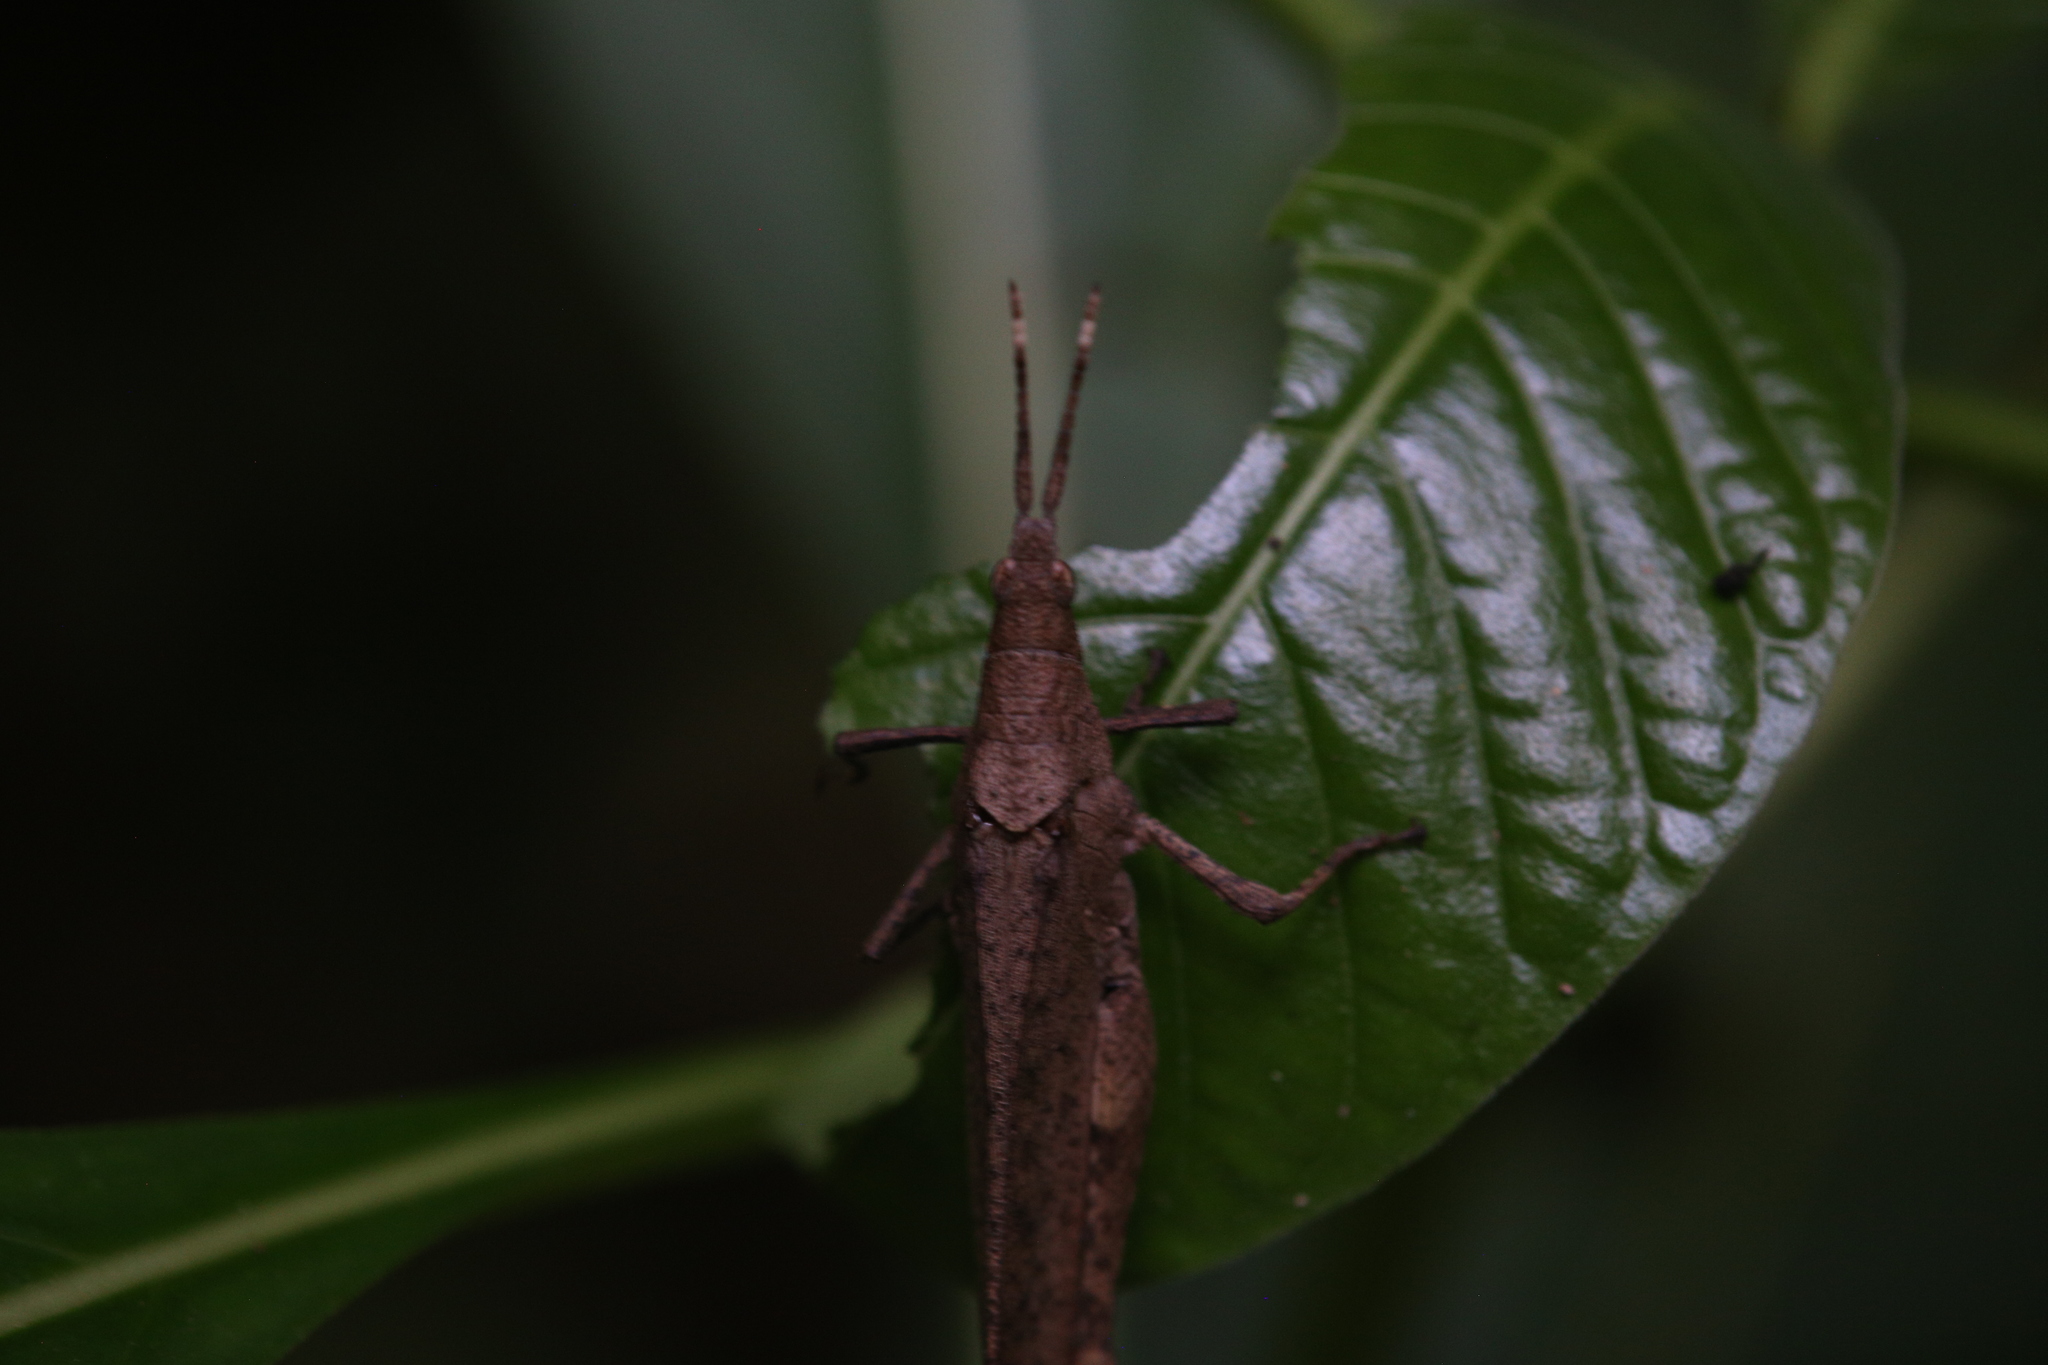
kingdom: Animalia
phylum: Arthropoda
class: Insecta
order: Orthoptera
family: Pyrgomorphidae
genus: Desmoptera
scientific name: Desmoptera truncatipennis
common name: Large forest pyrgomorph
